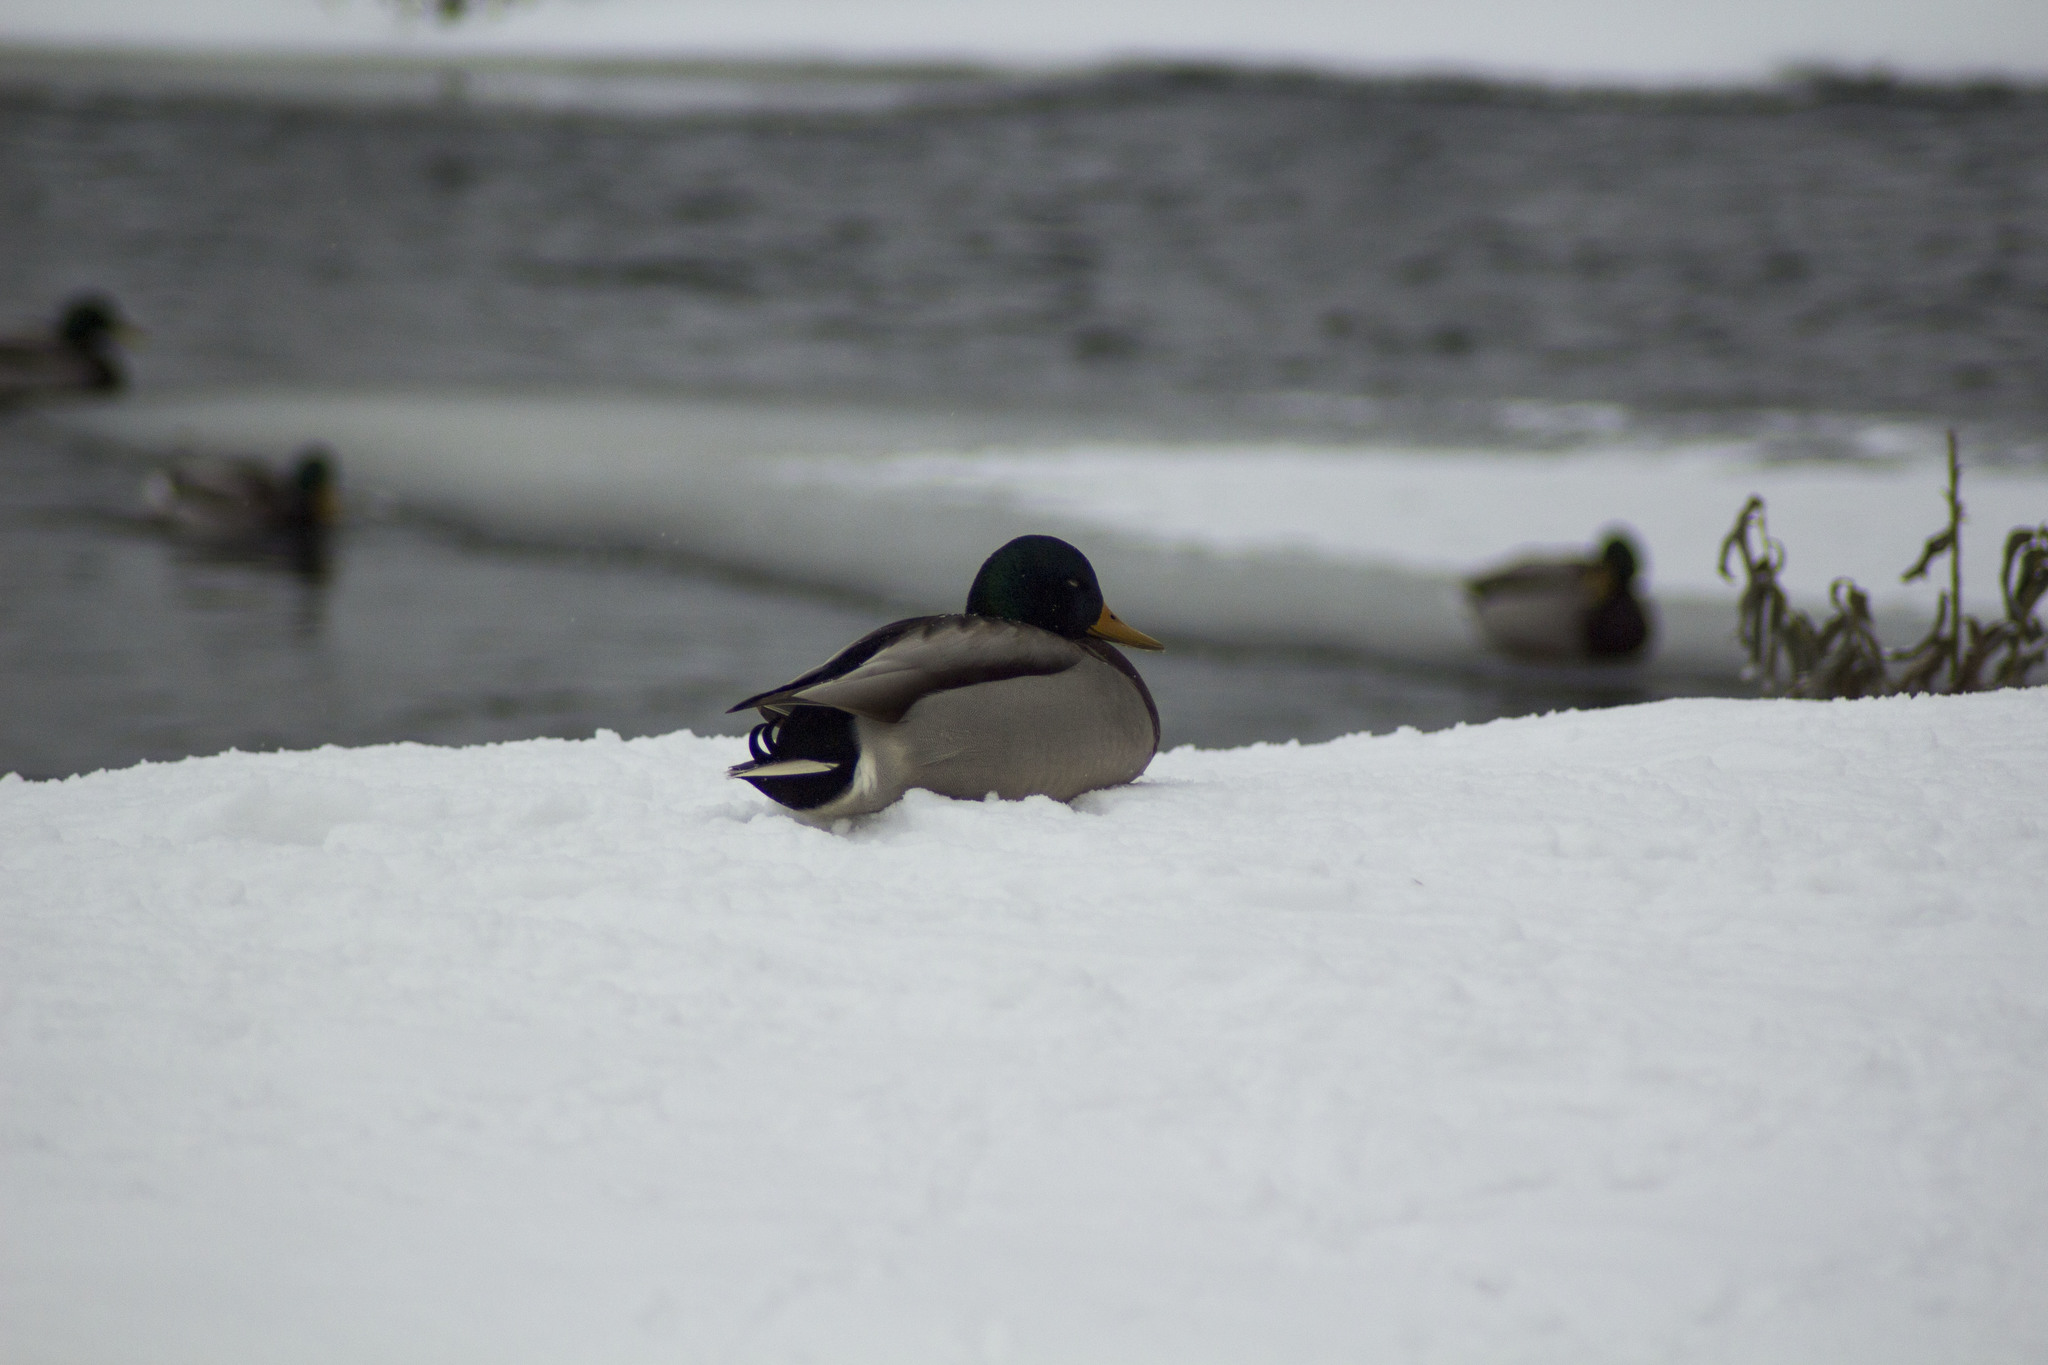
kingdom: Animalia
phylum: Chordata
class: Aves
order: Anseriformes
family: Anatidae
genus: Anas
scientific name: Anas platyrhynchos
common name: Mallard
